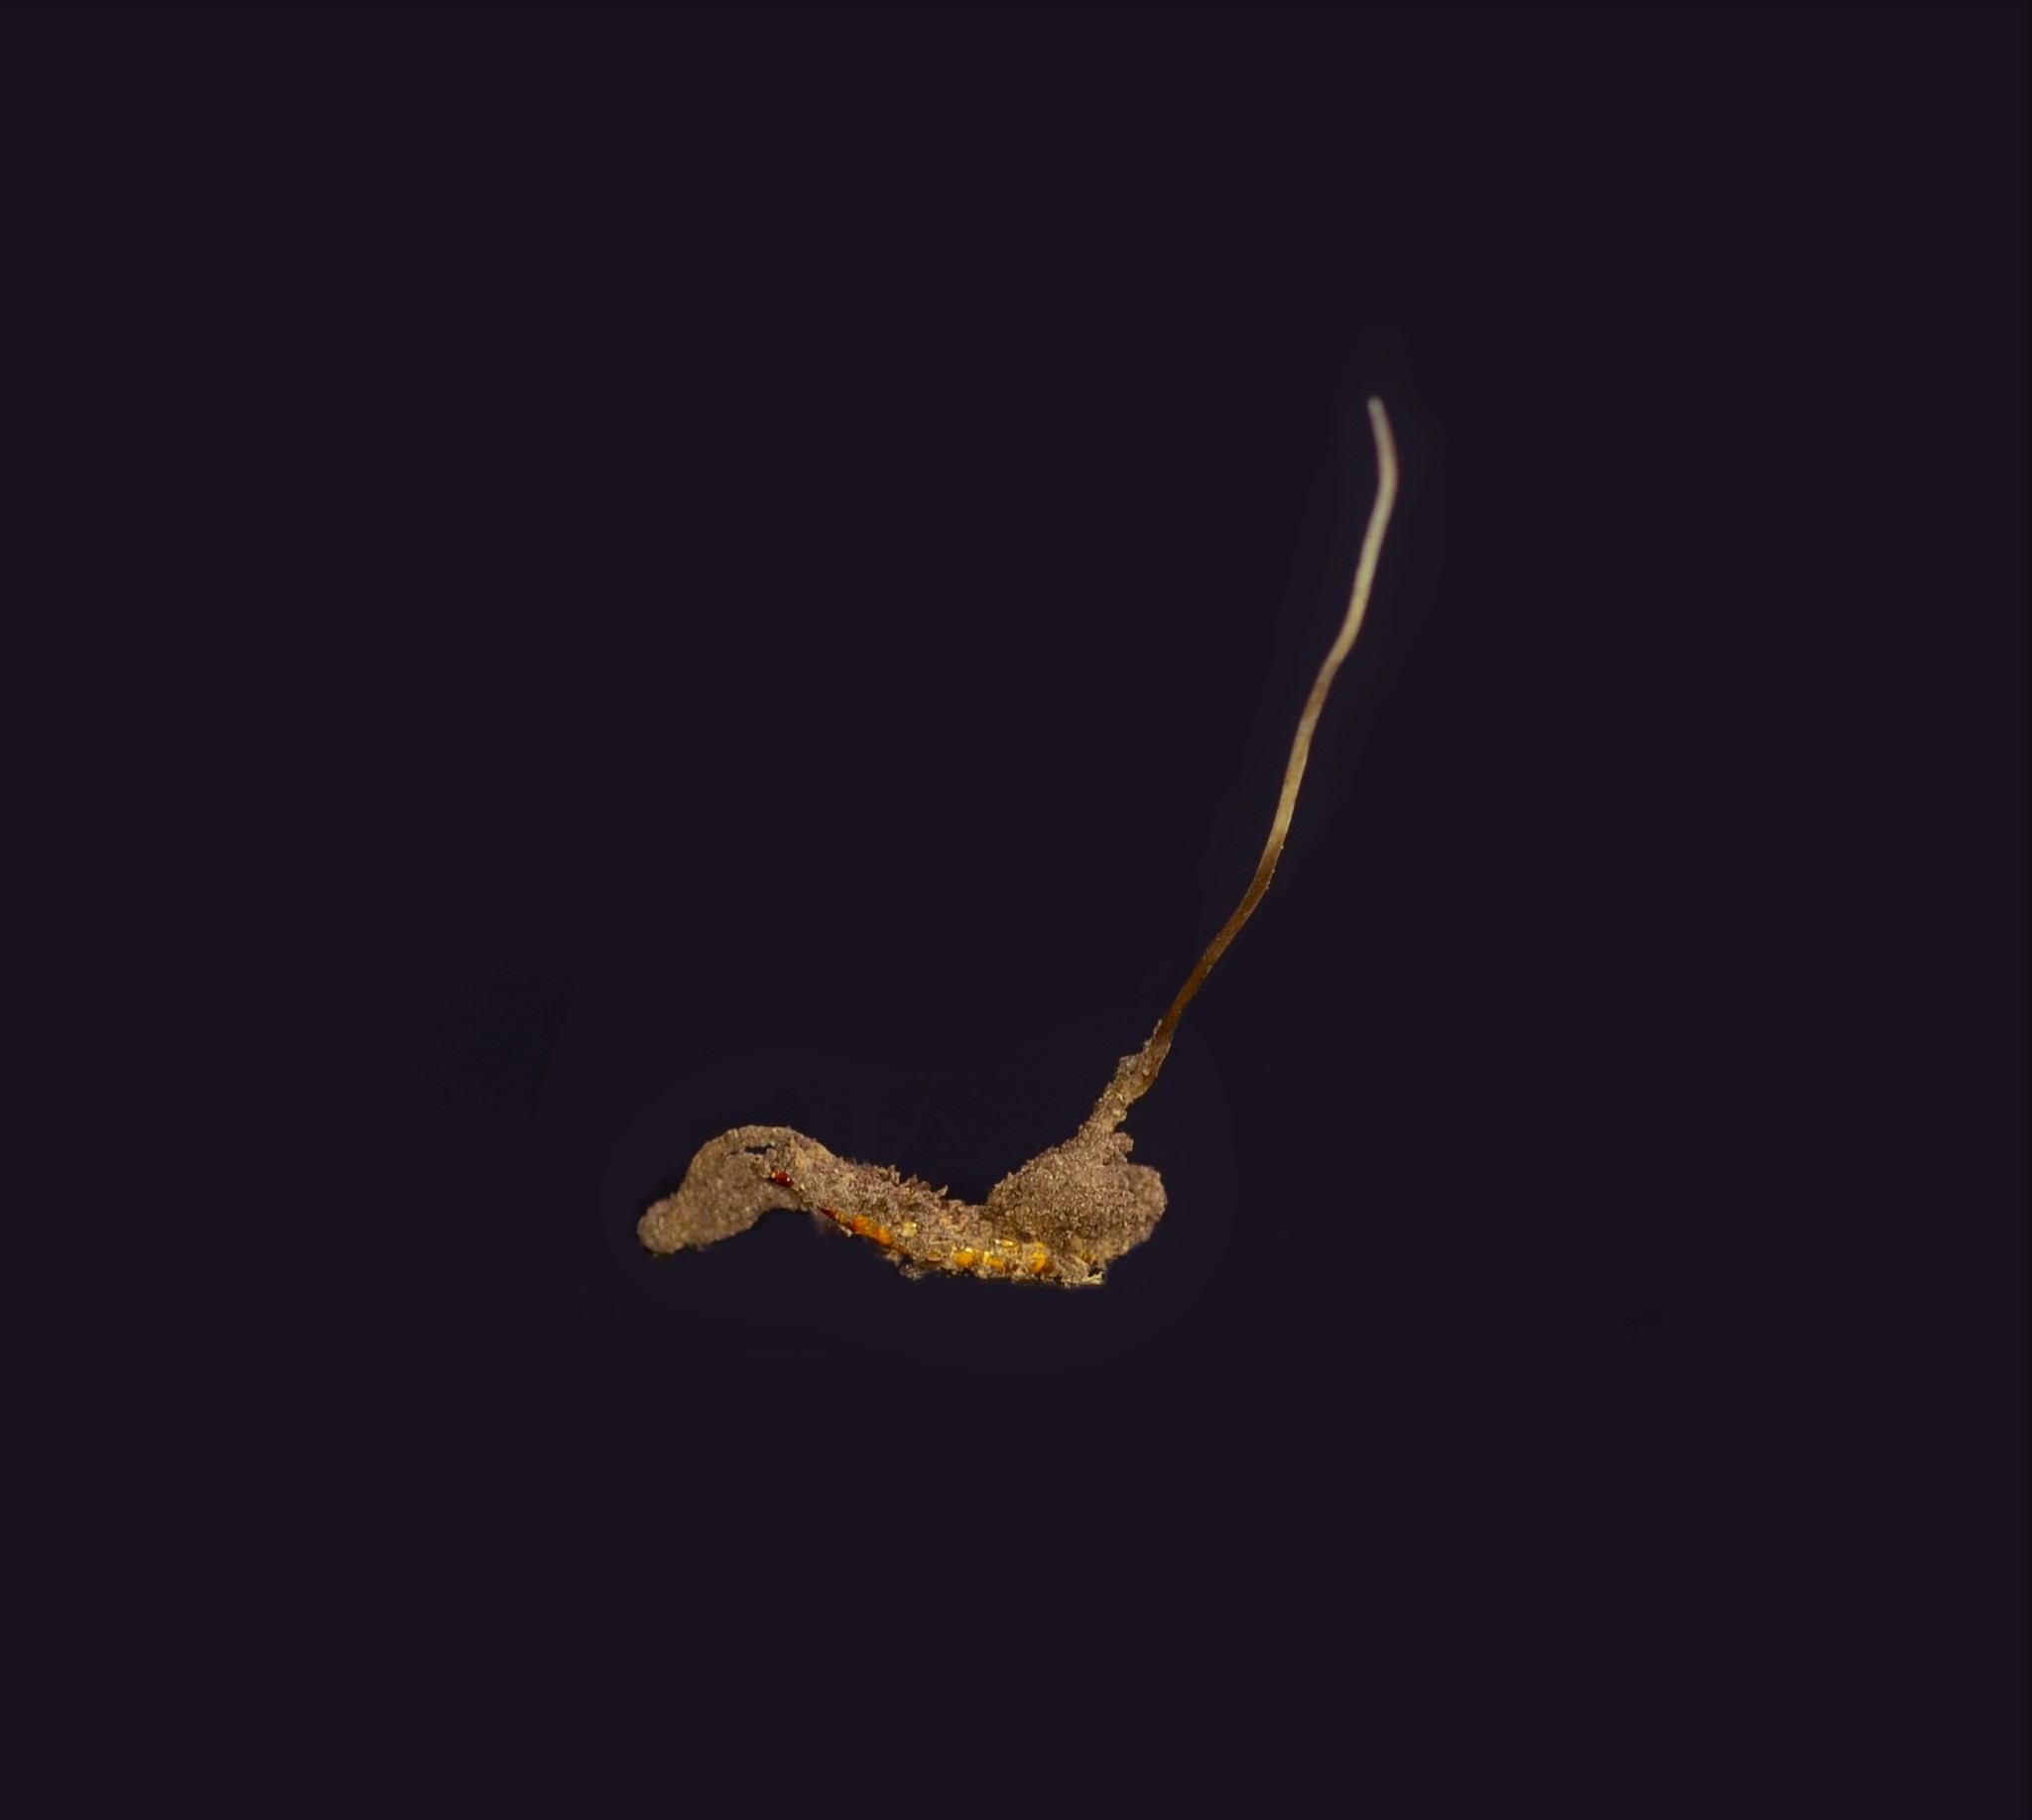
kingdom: Fungi
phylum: Ascomycota
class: Sordariomycetes
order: Hypocreales
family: Ophiocordycipitaceae
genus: Ophiocordyceps
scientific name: Ophiocordyceps stylophora
